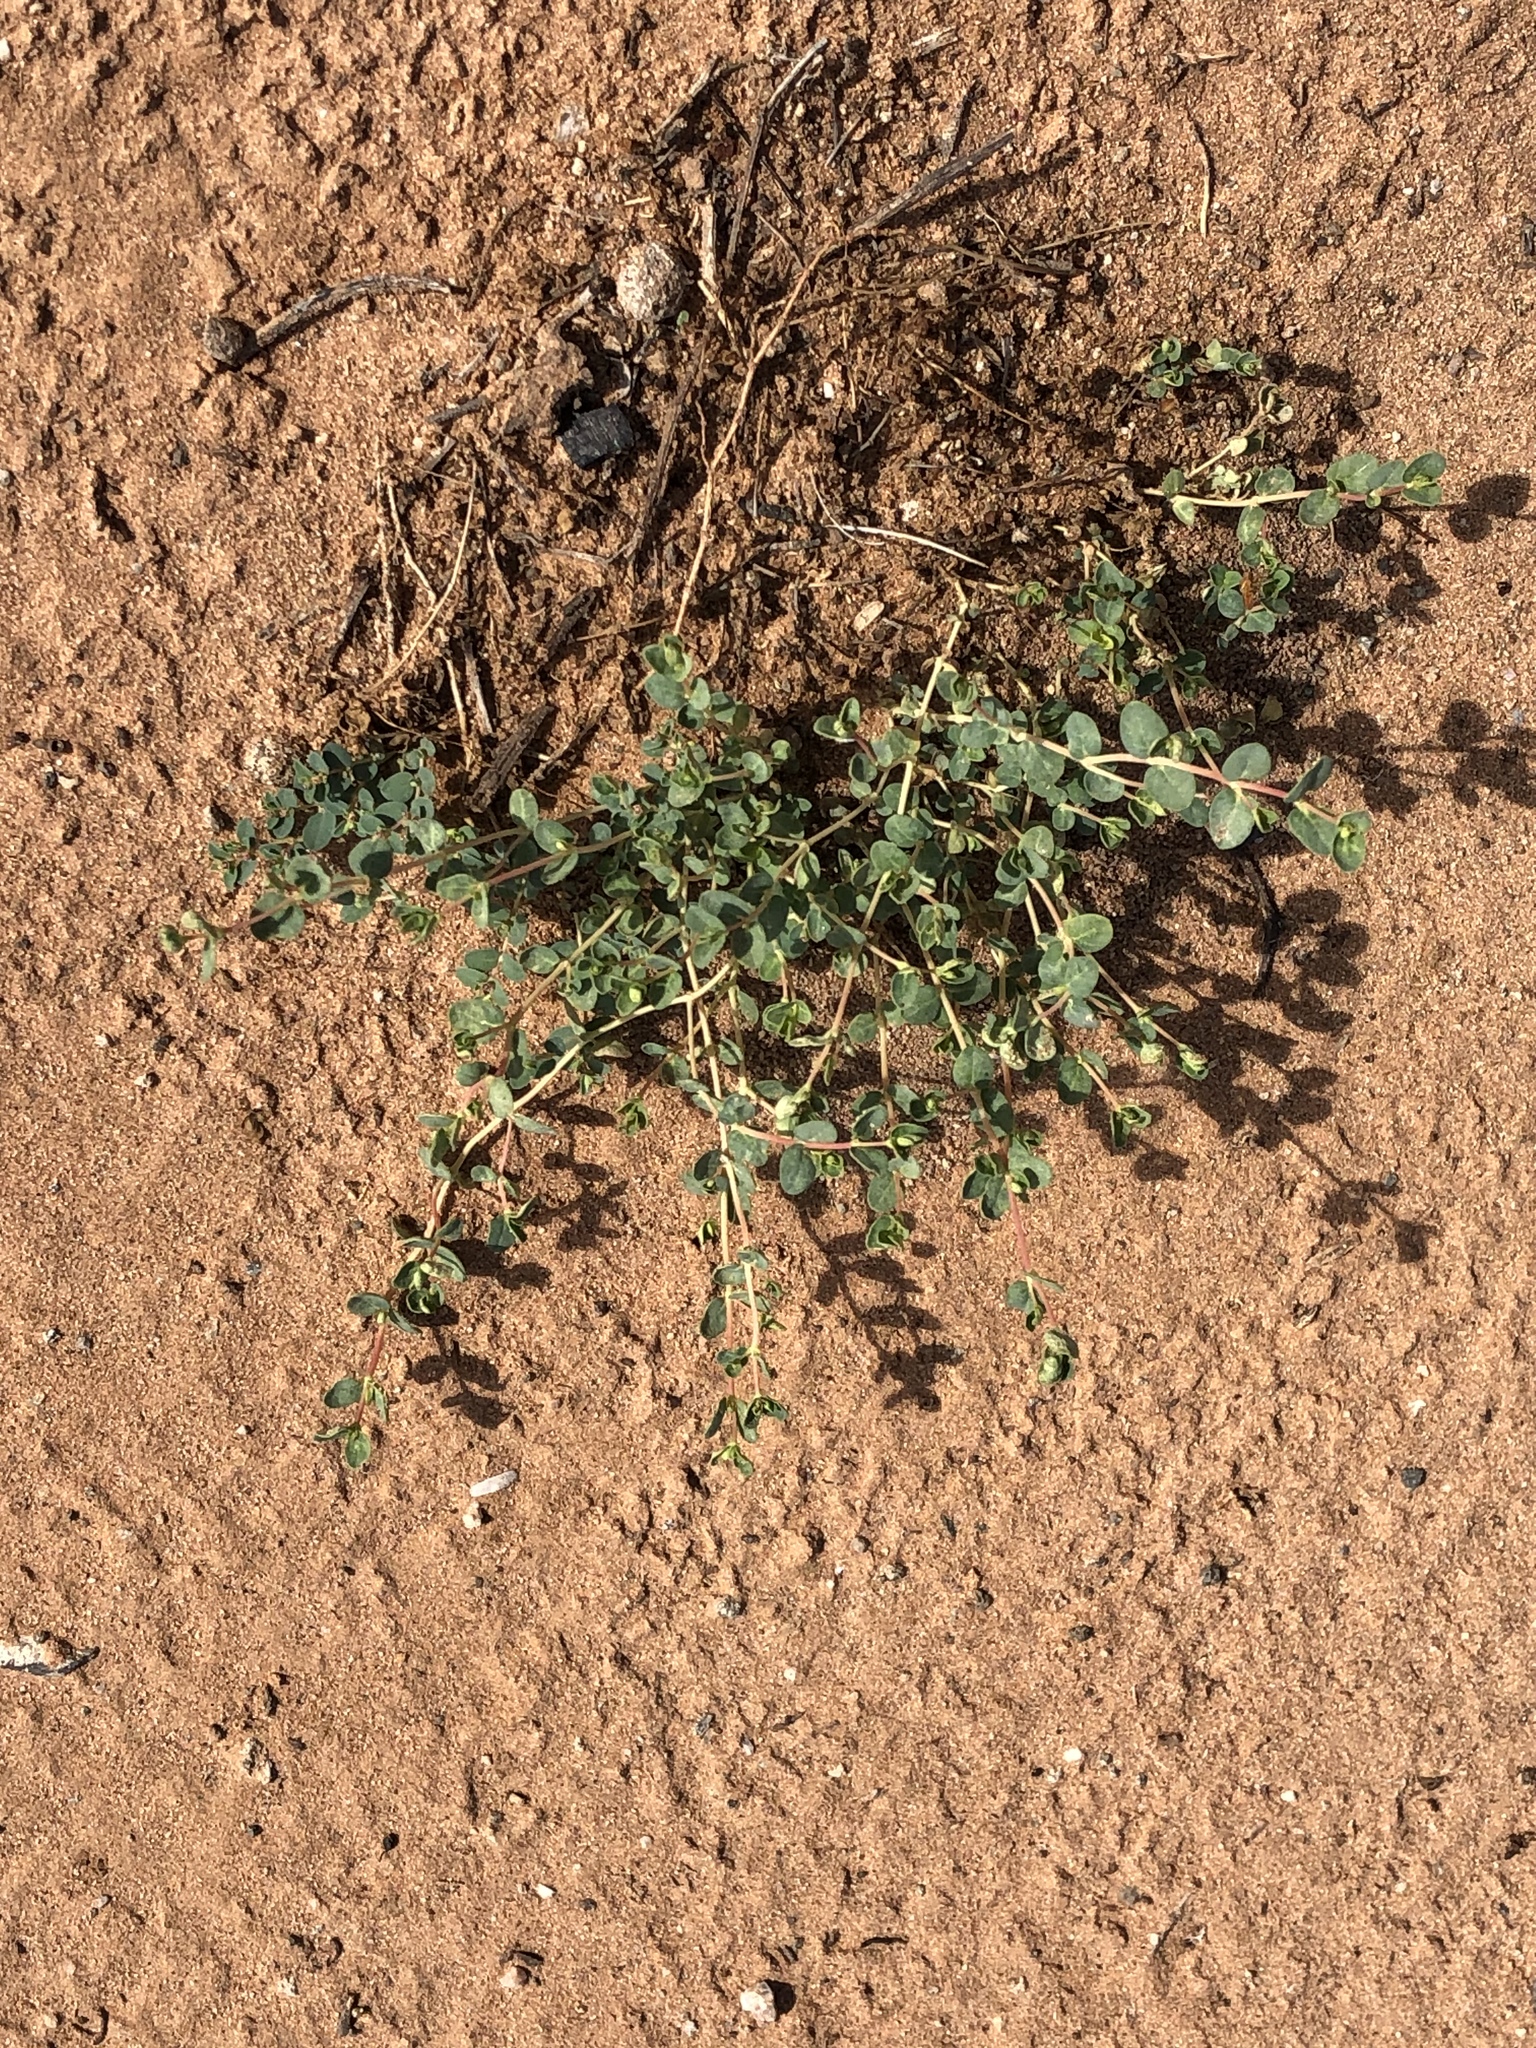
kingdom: Plantae
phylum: Tracheophyta
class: Magnoliopsida
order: Malpighiales
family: Euphorbiaceae
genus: Euphorbia
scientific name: Euphorbia polycarpa
